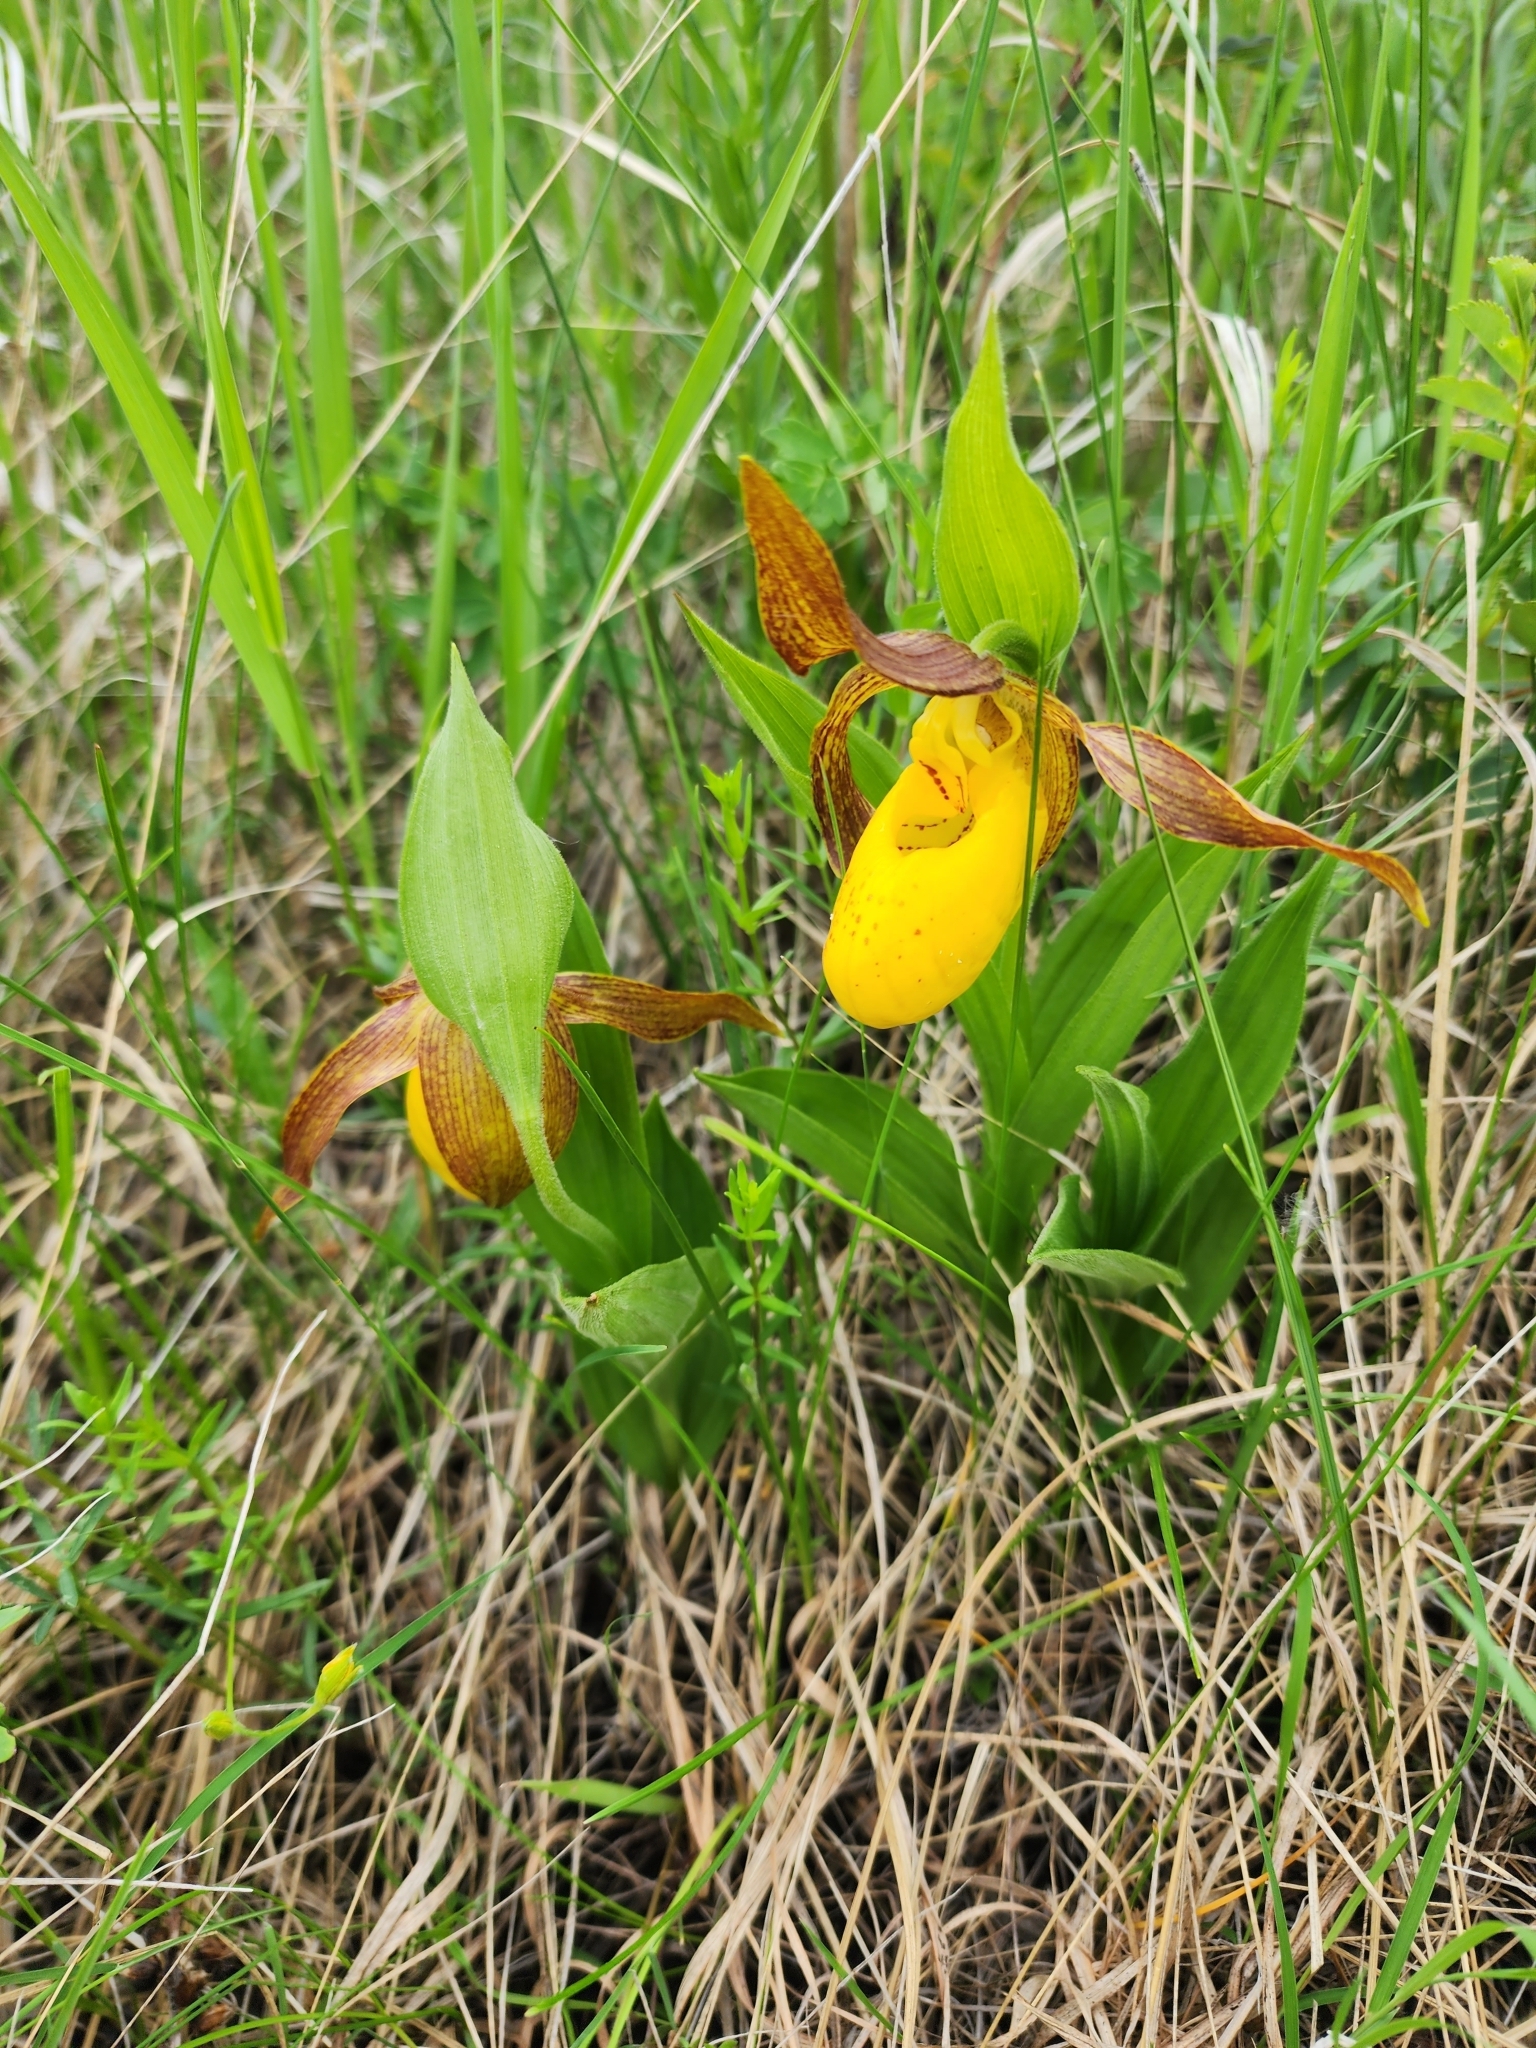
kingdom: Plantae
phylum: Tracheophyta
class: Liliopsida
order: Asparagales
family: Orchidaceae
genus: Cypripedium
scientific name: Cypripedium parviflorum
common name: American yellow lady's-slipper
